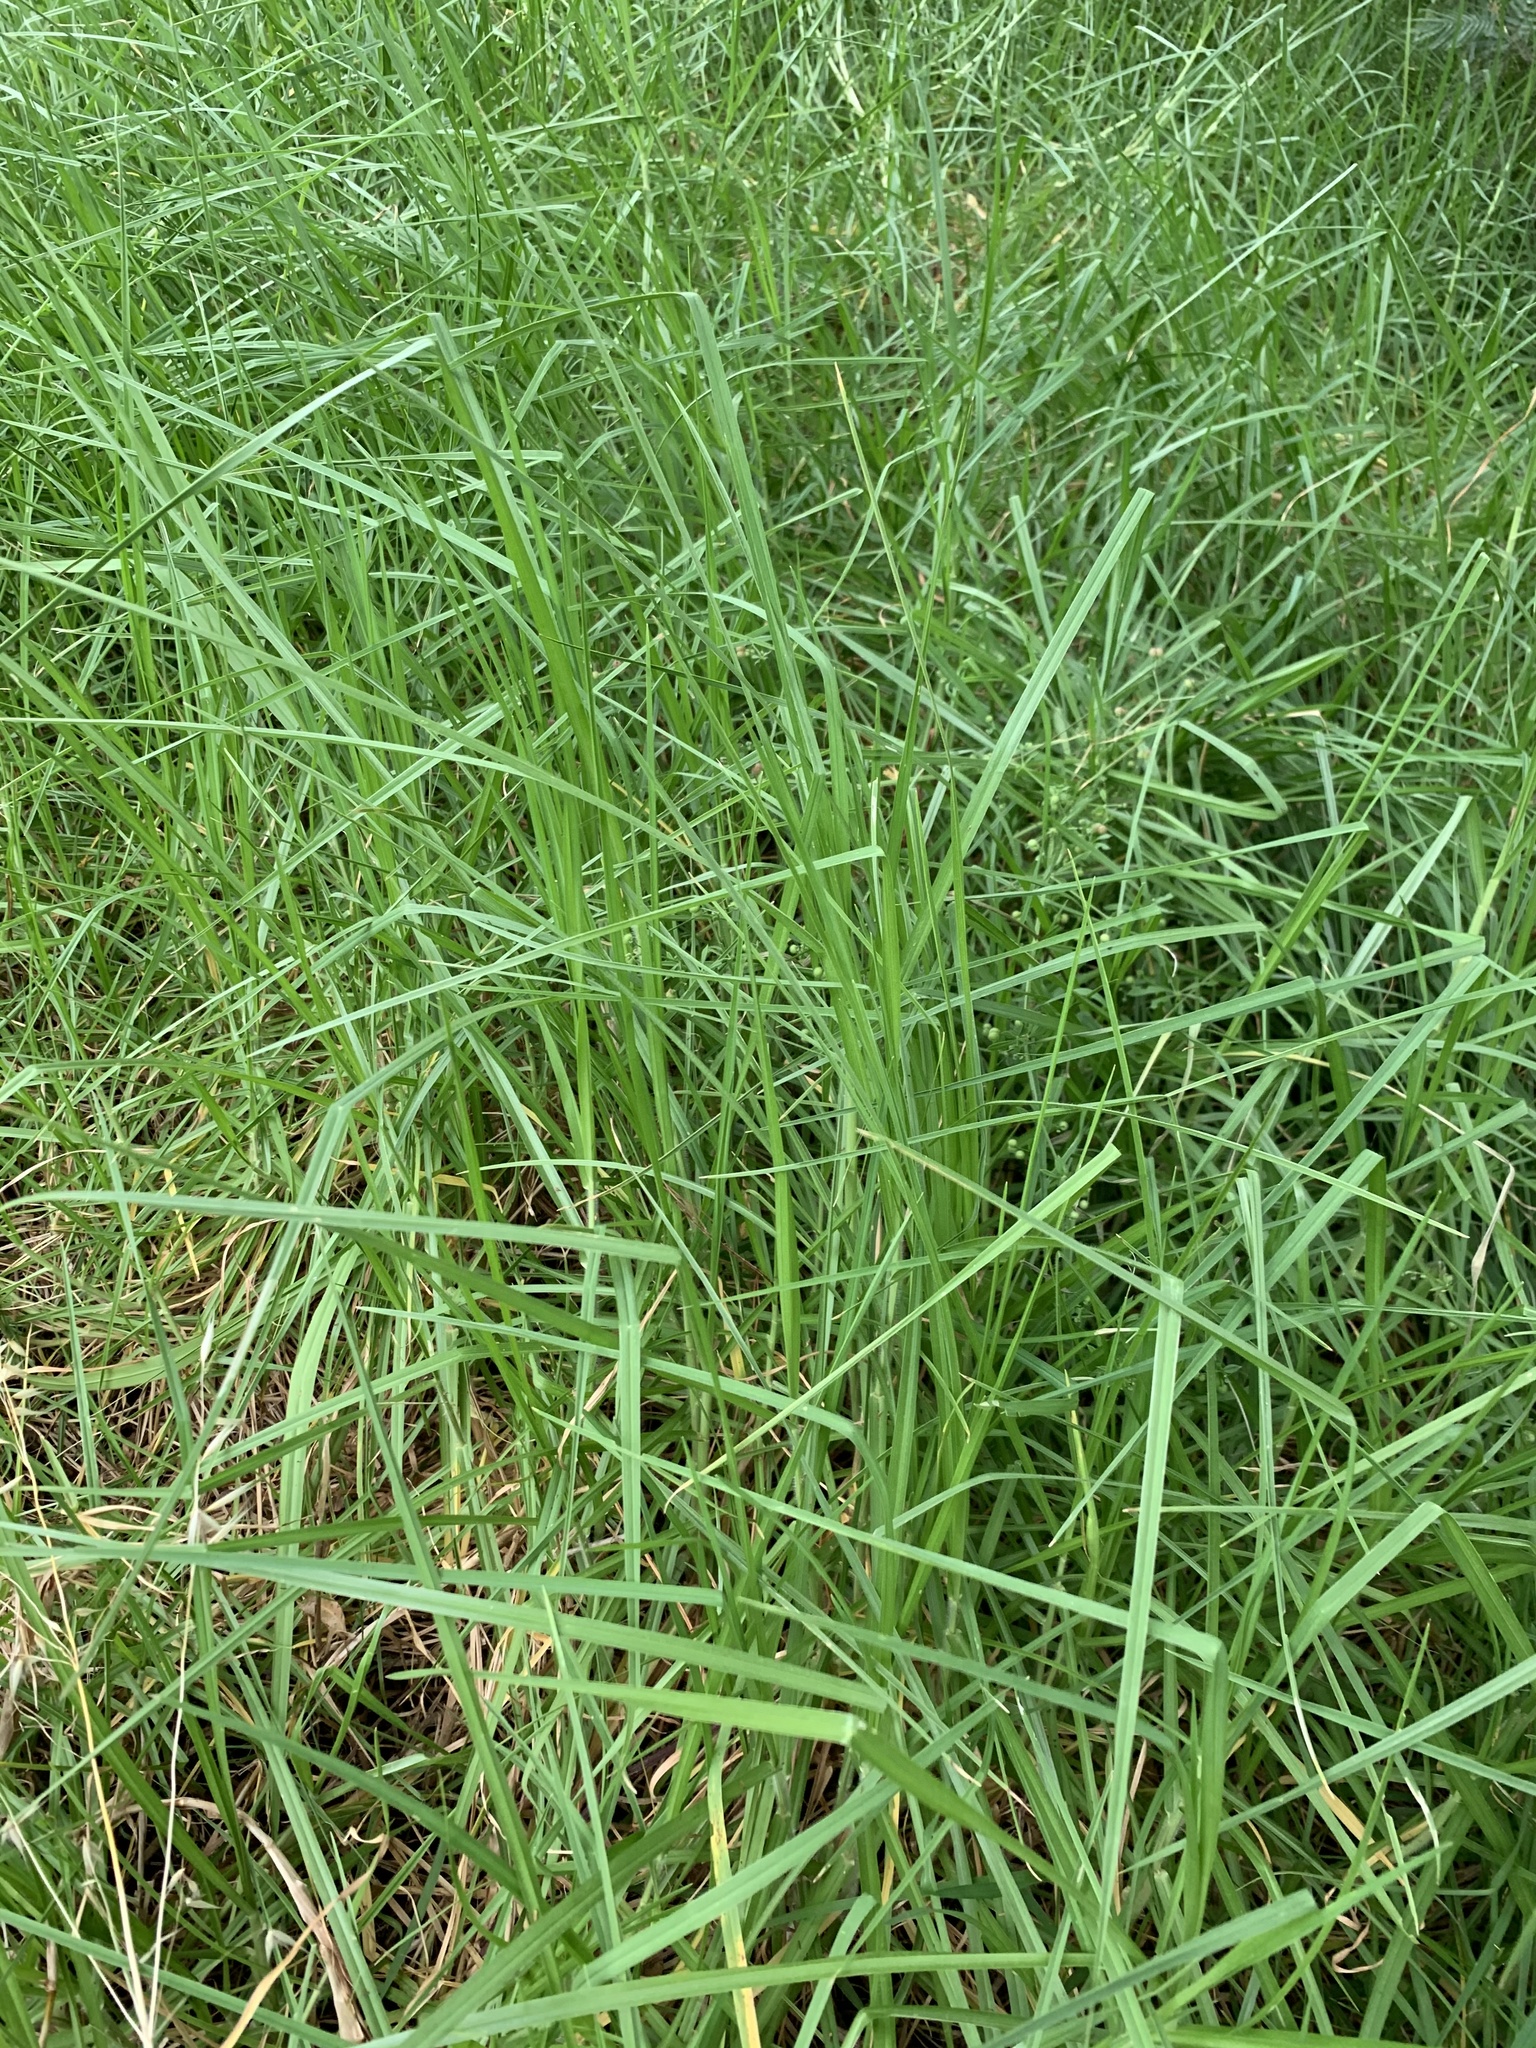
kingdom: Plantae
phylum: Tracheophyta
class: Liliopsida
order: Poales
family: Poaceae
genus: Cenchrus
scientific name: Cenchrus clandestinus
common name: Kikuyugrass
